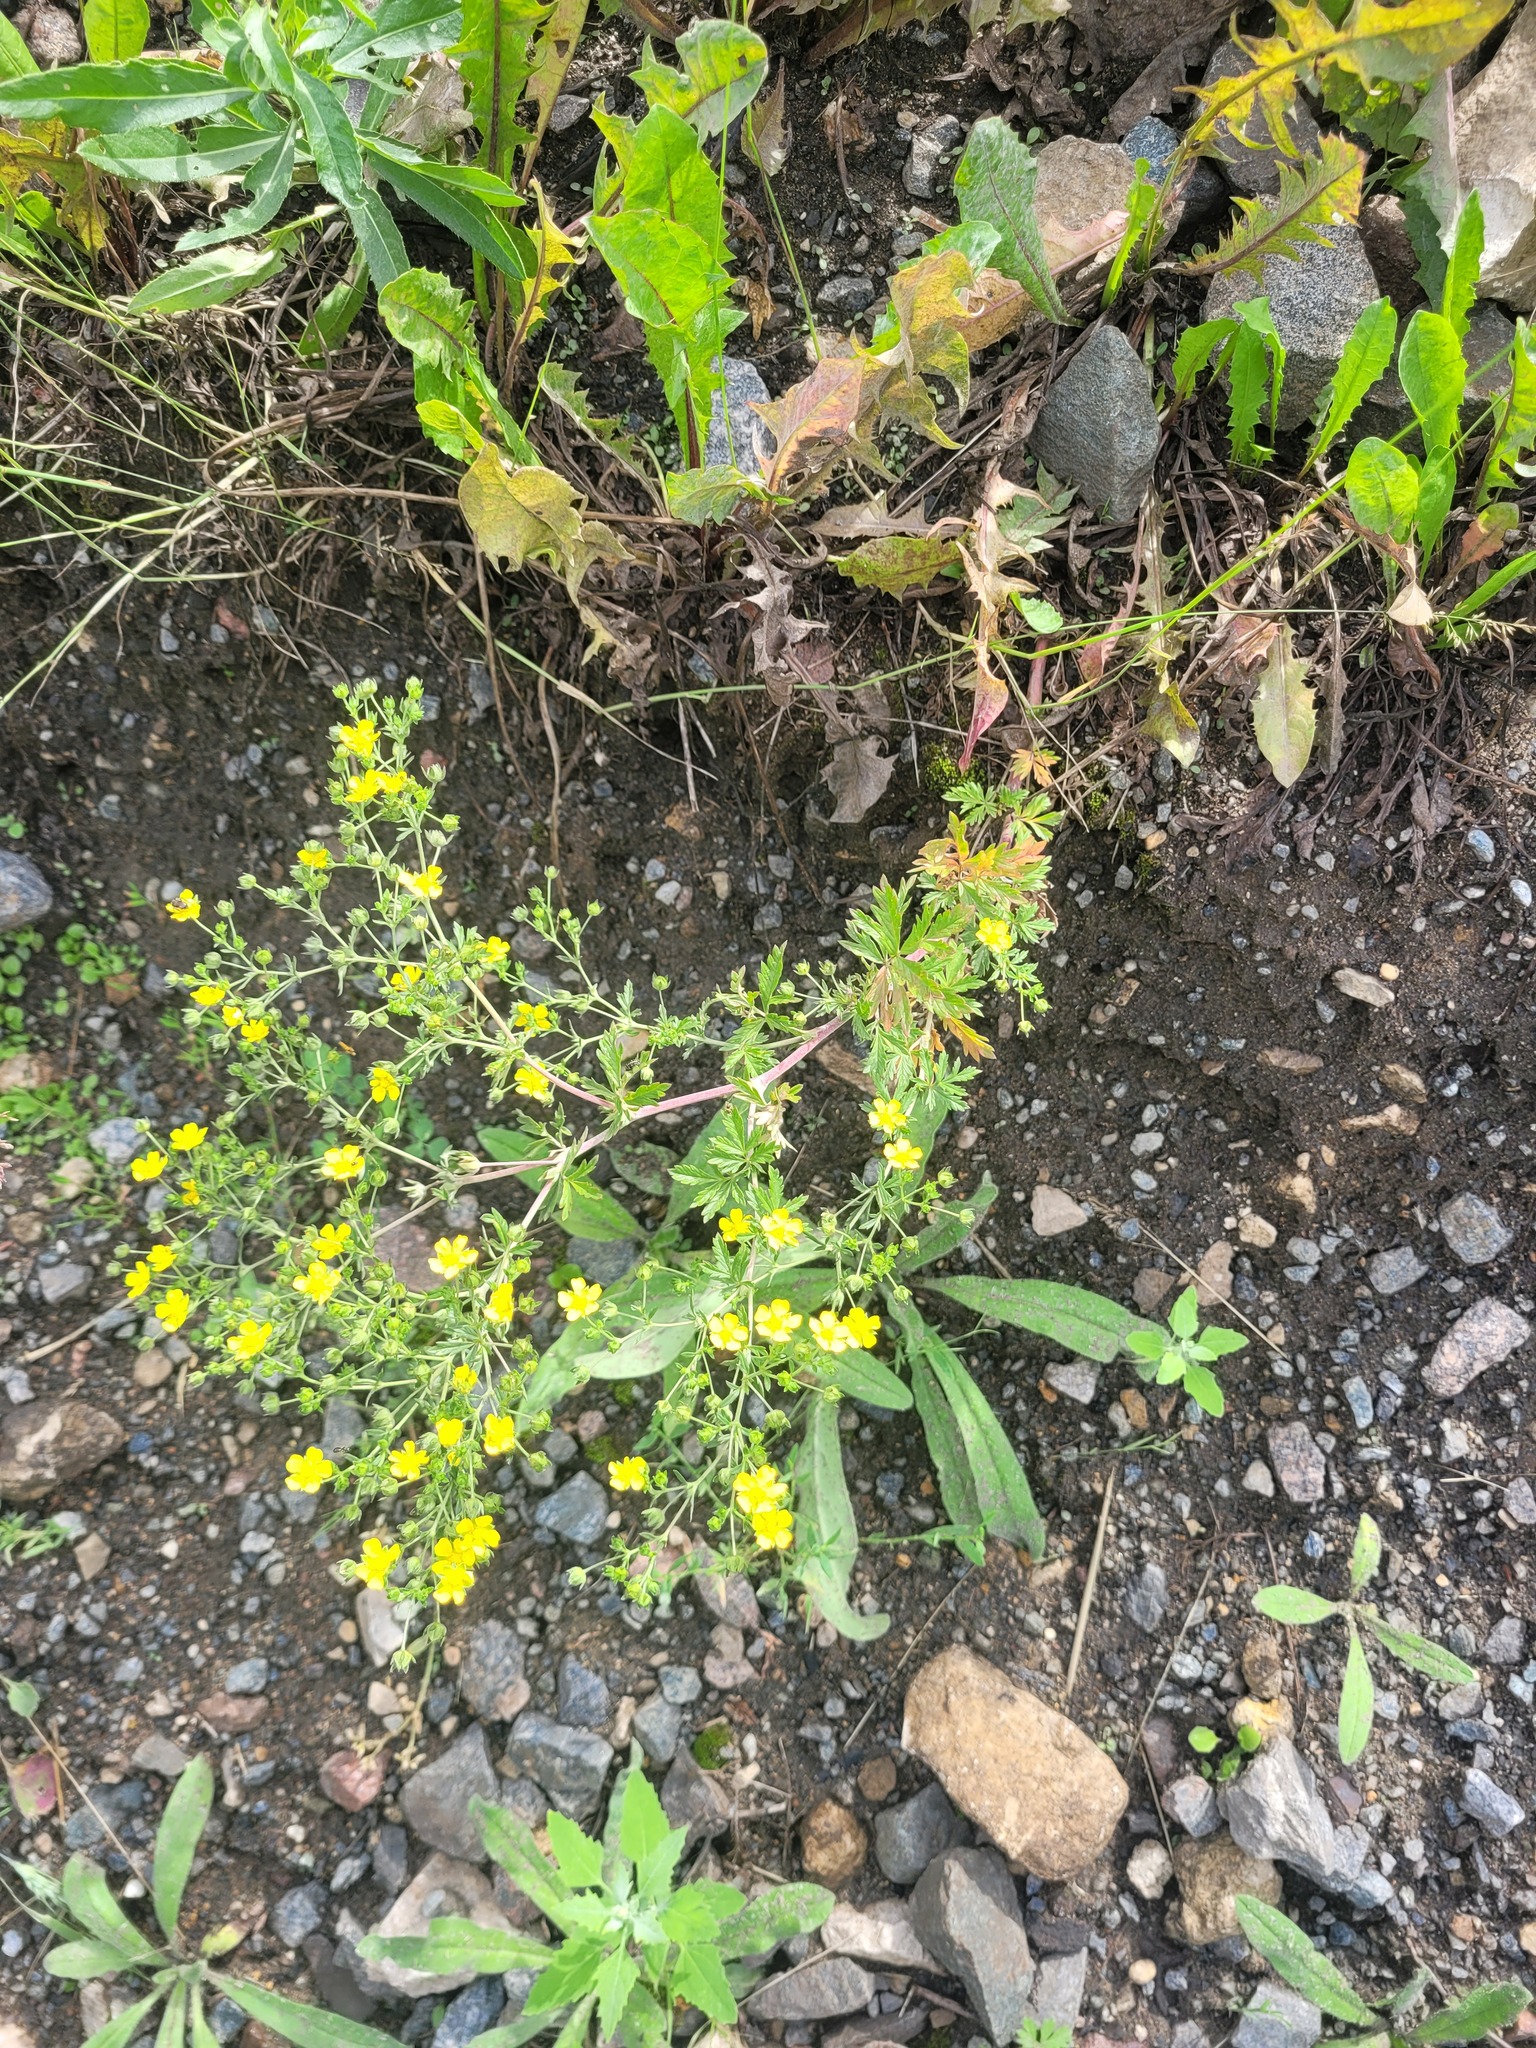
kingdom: Plantae
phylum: Tracheophyta
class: Magnoliopsida
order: Rosales
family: Rosaceae
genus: Potentilla
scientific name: Potentilla tobolensis
